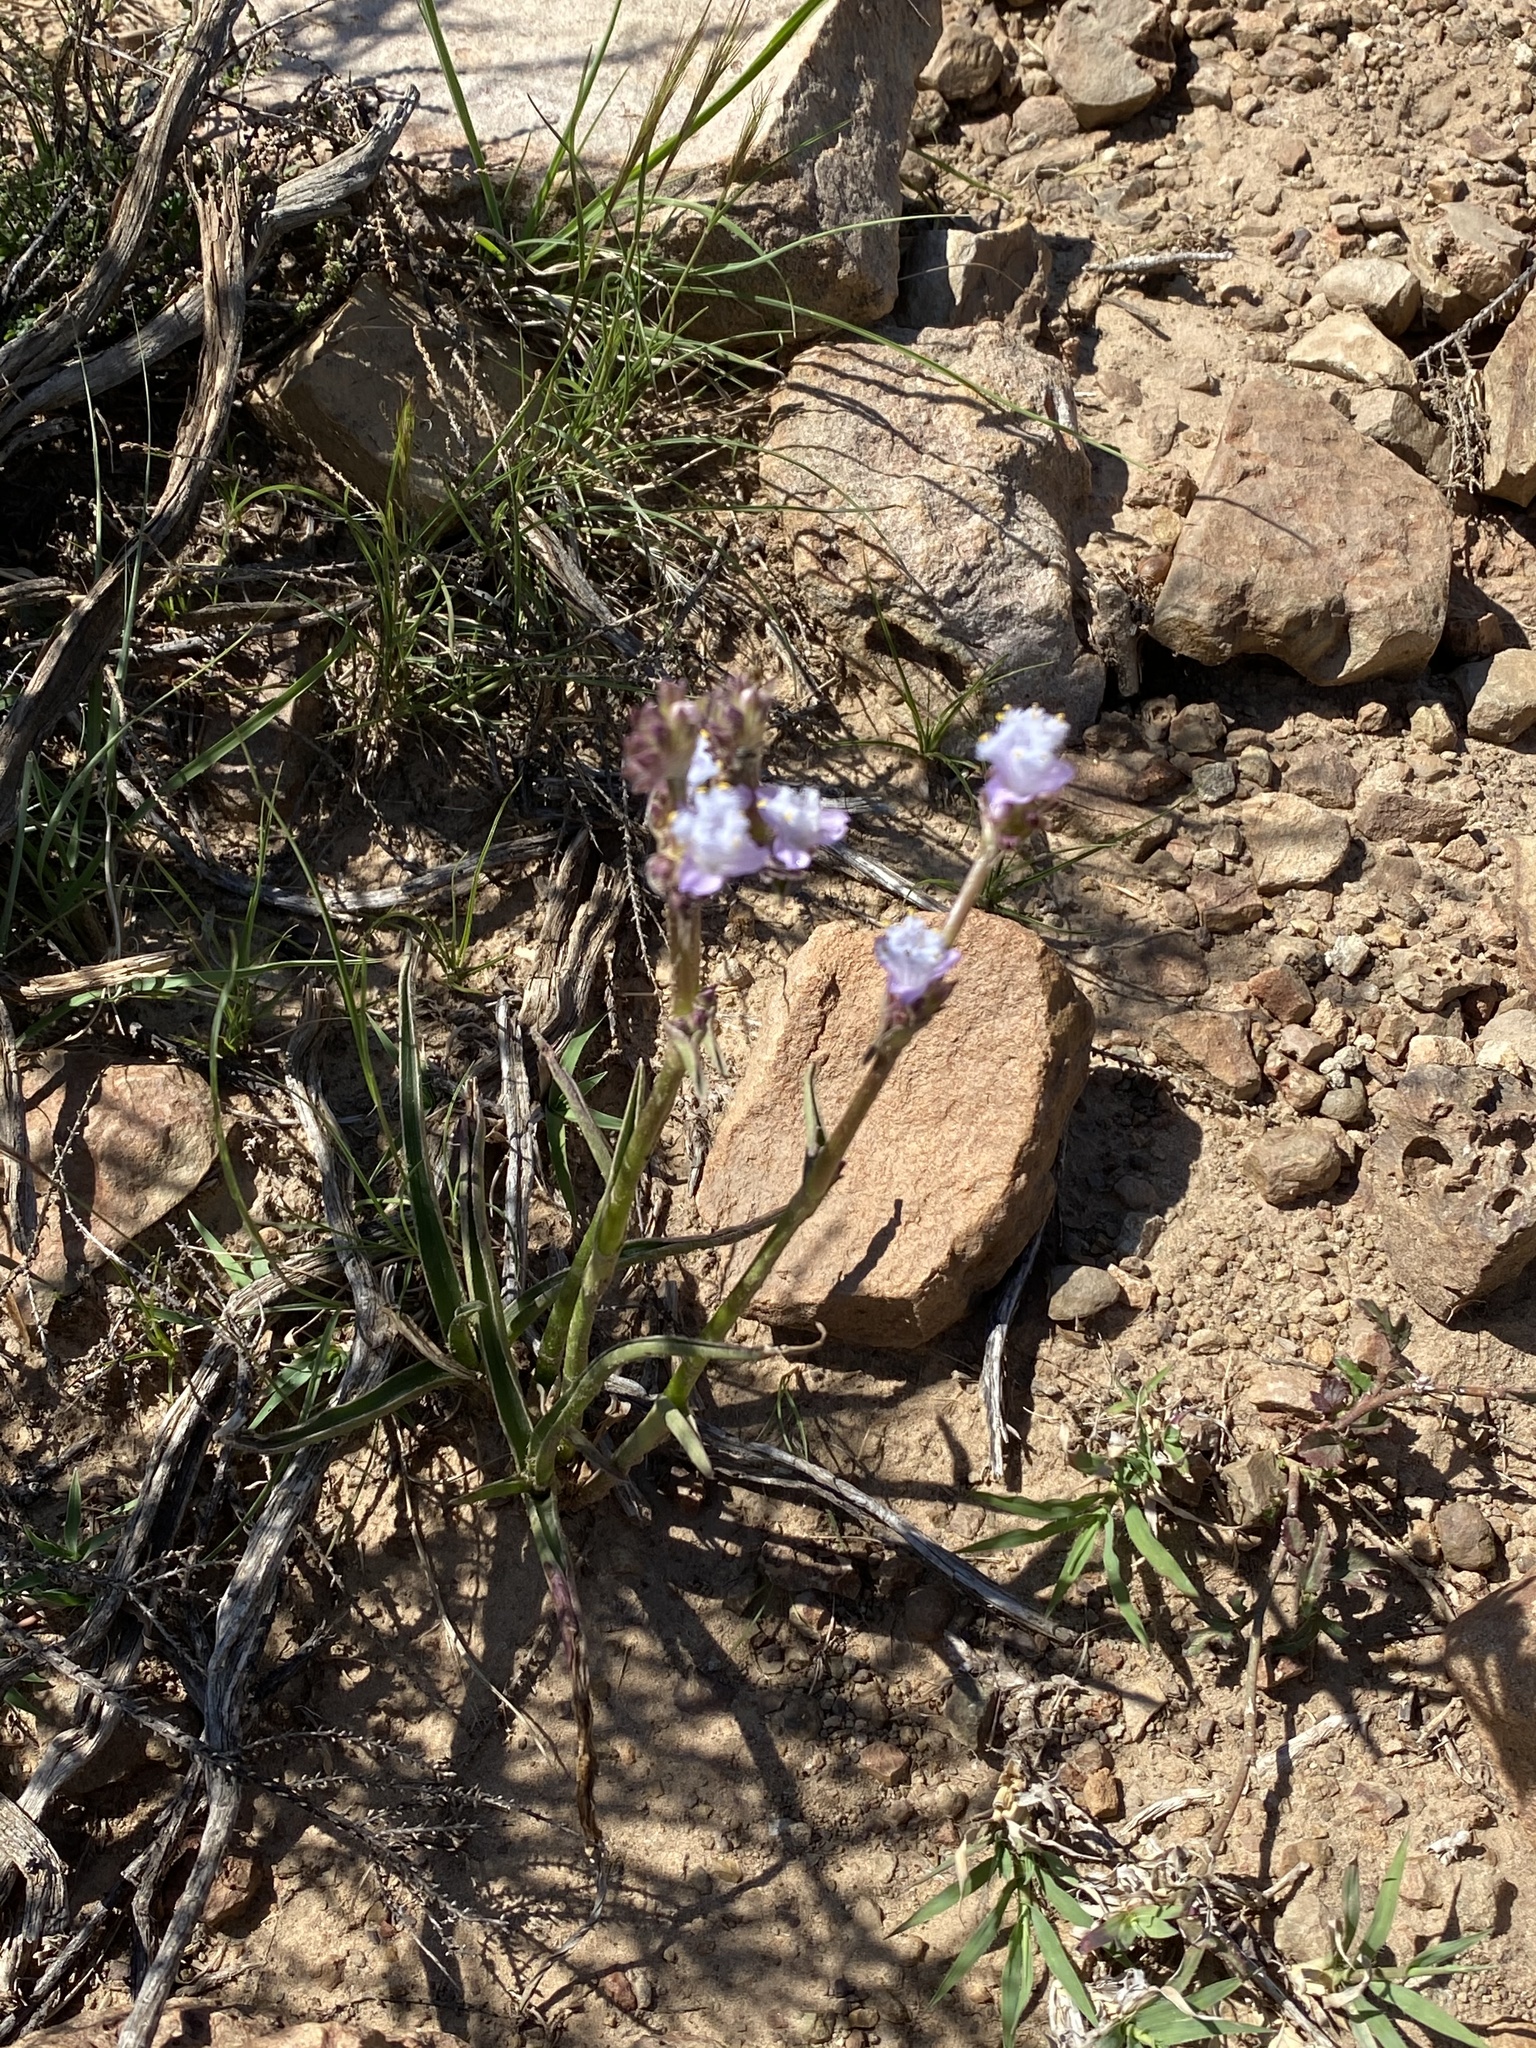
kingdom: Plantae
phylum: Tracheophyta
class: Liliopsida
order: Commelinales
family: Commelinaceae
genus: Cyanotis
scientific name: Cyanotis speciosa
